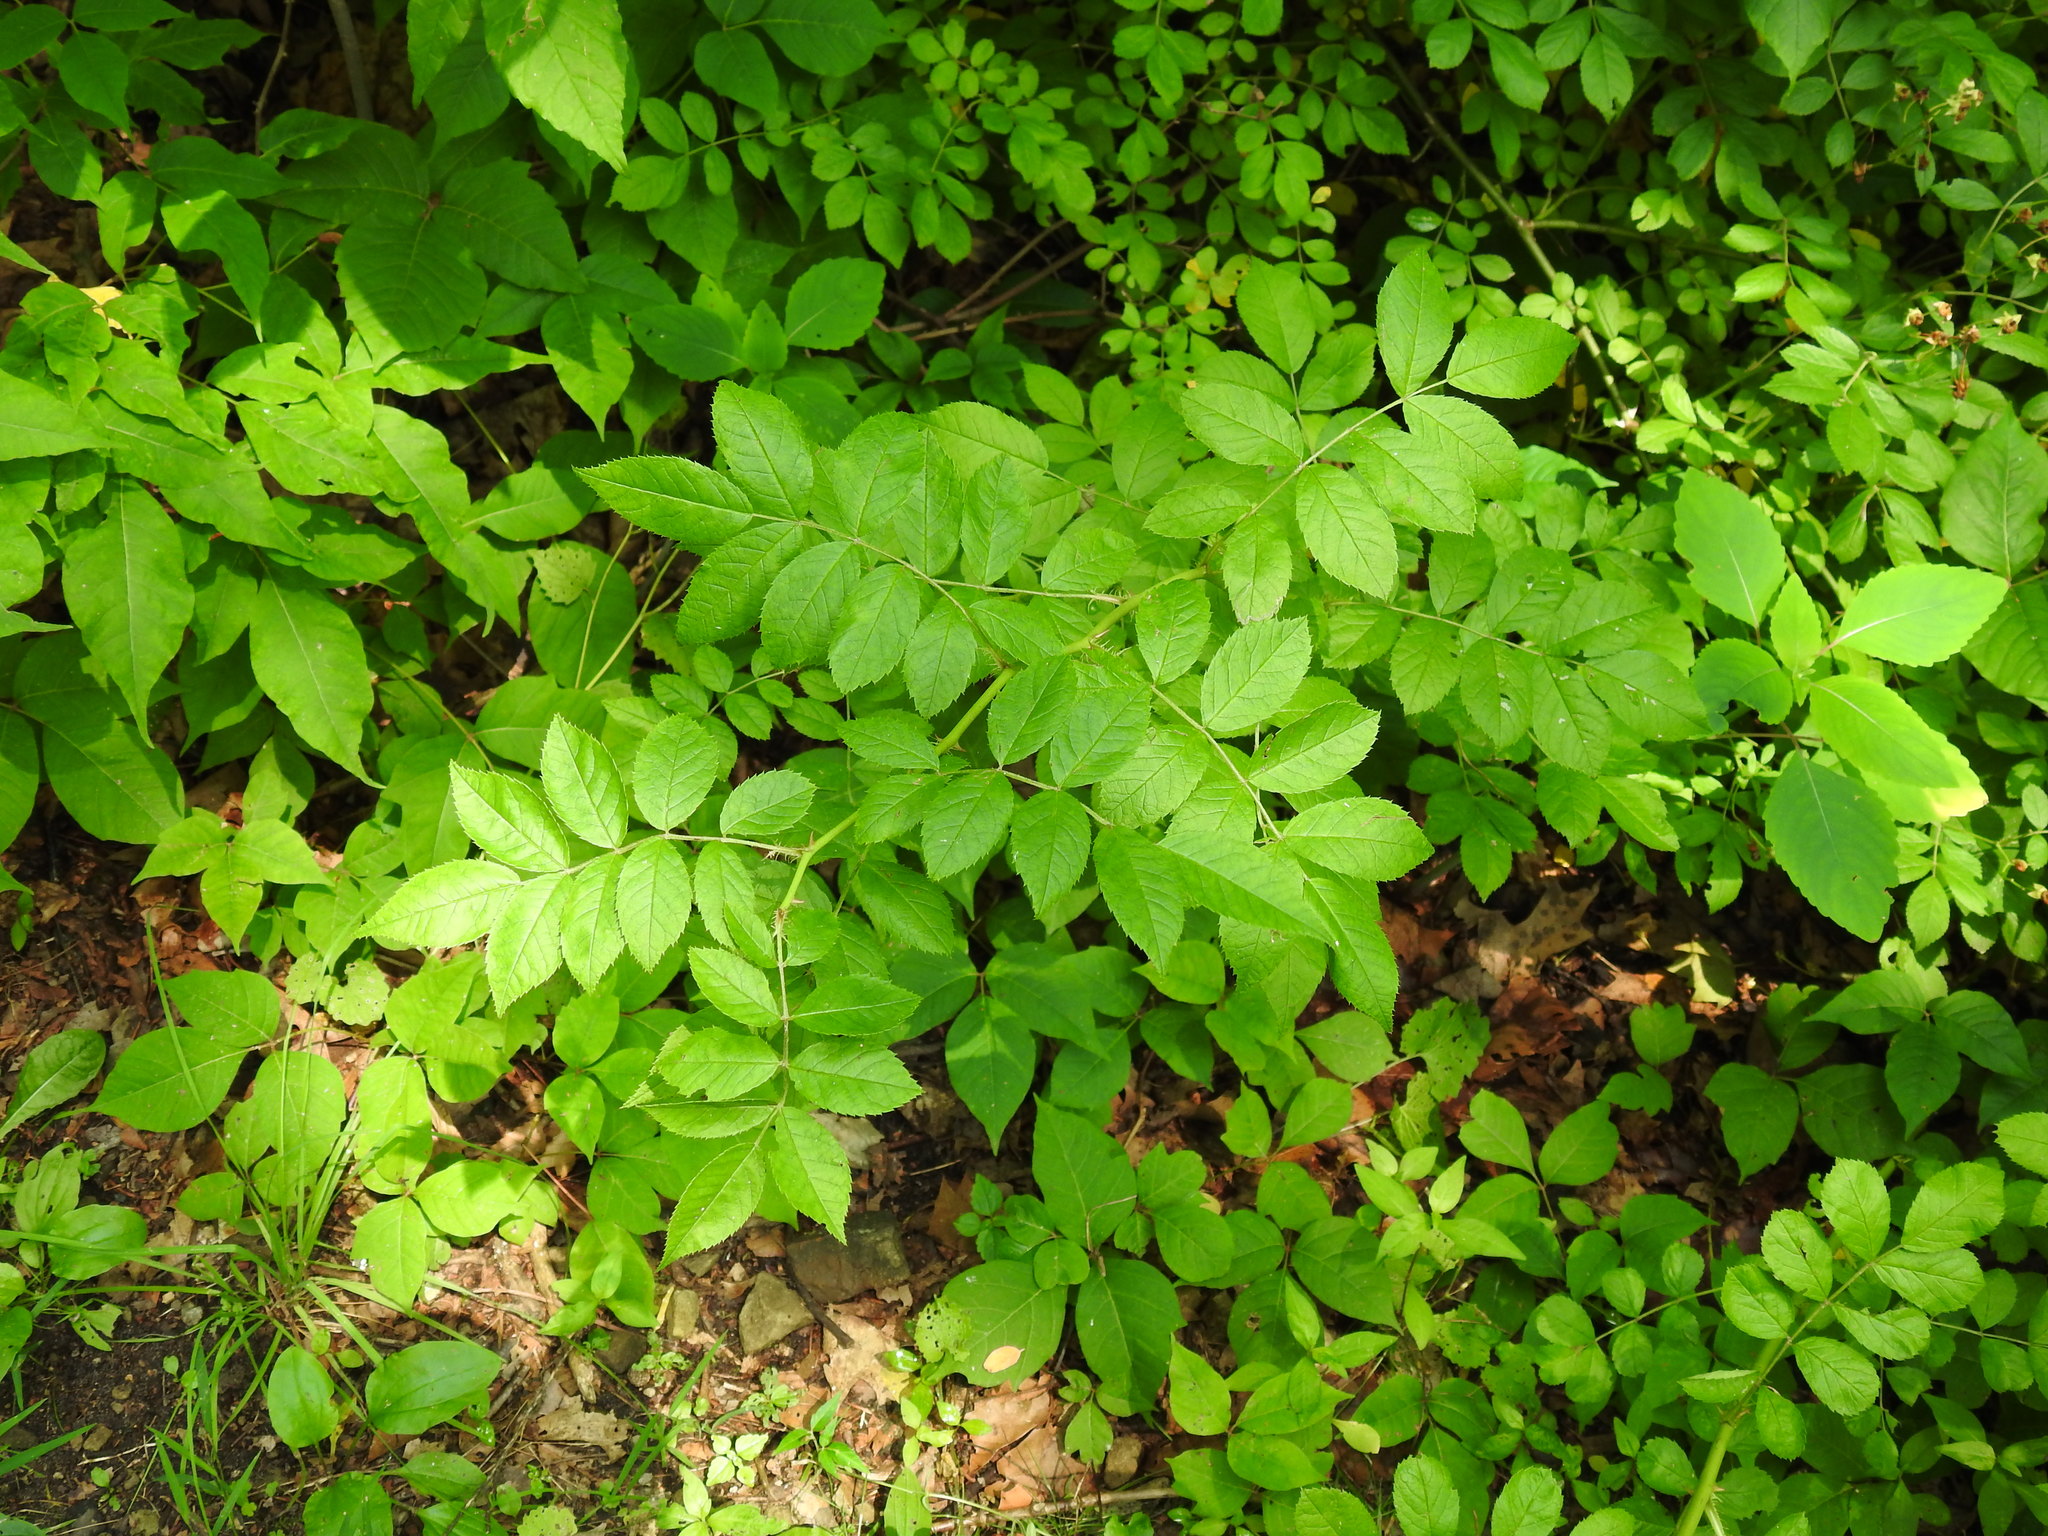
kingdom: Plantae
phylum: Tracheophyta
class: Magnoliopsida
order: Rosales
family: Rosaceae
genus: Rosa
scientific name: Rosa multiflora
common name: Multiflora rose
